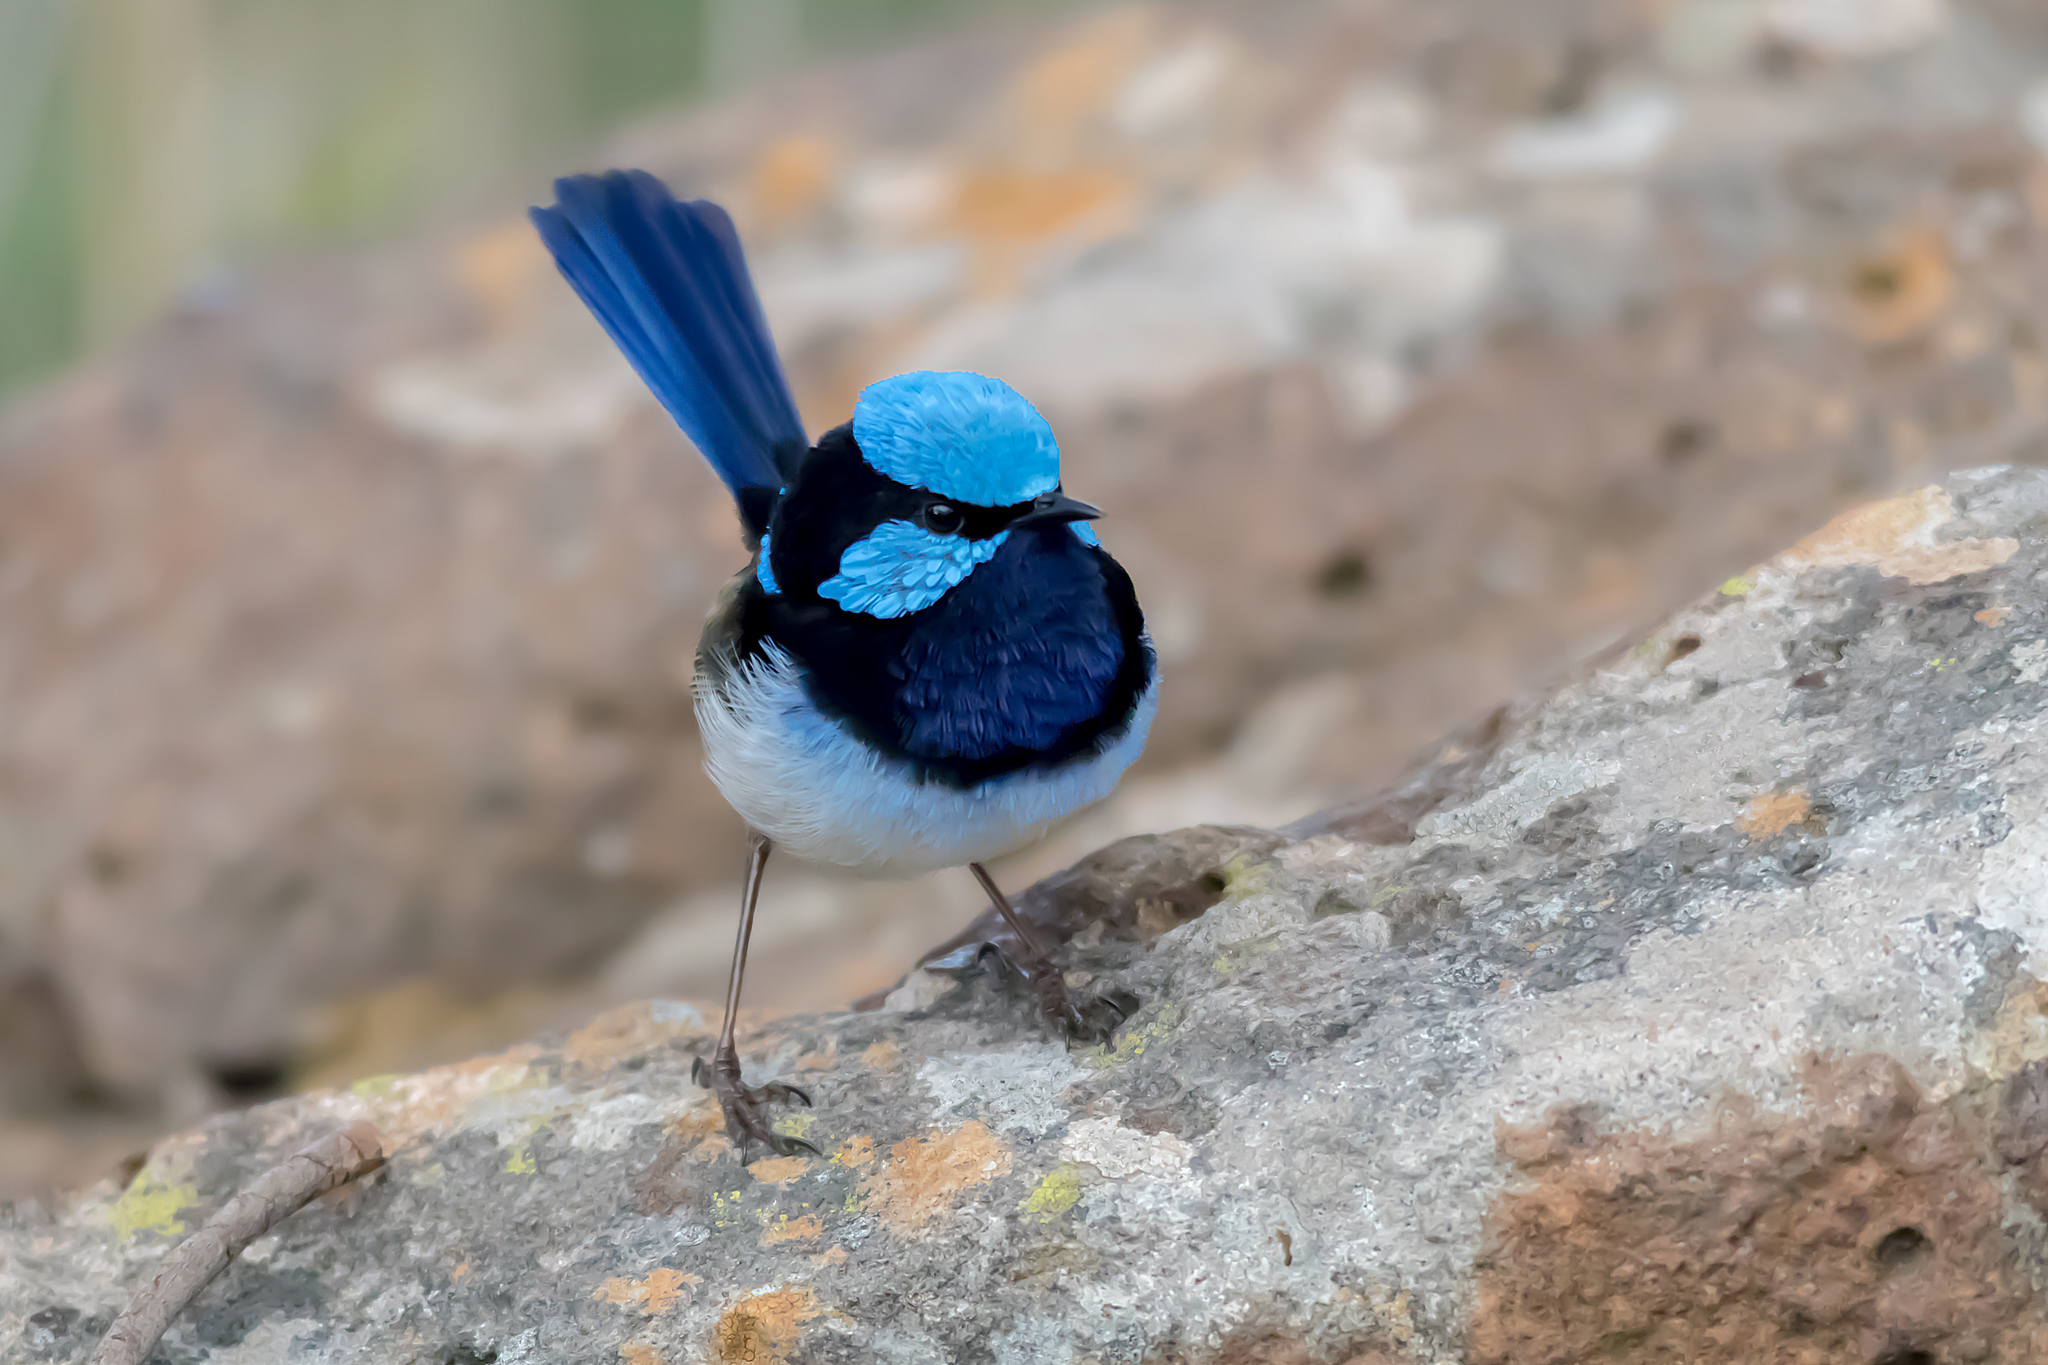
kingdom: Animalia
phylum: Chordata
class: Aves
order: Passeriformes
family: Maluridae
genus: Malurus
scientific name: Malurus cyaneus
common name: Superb fairywren
